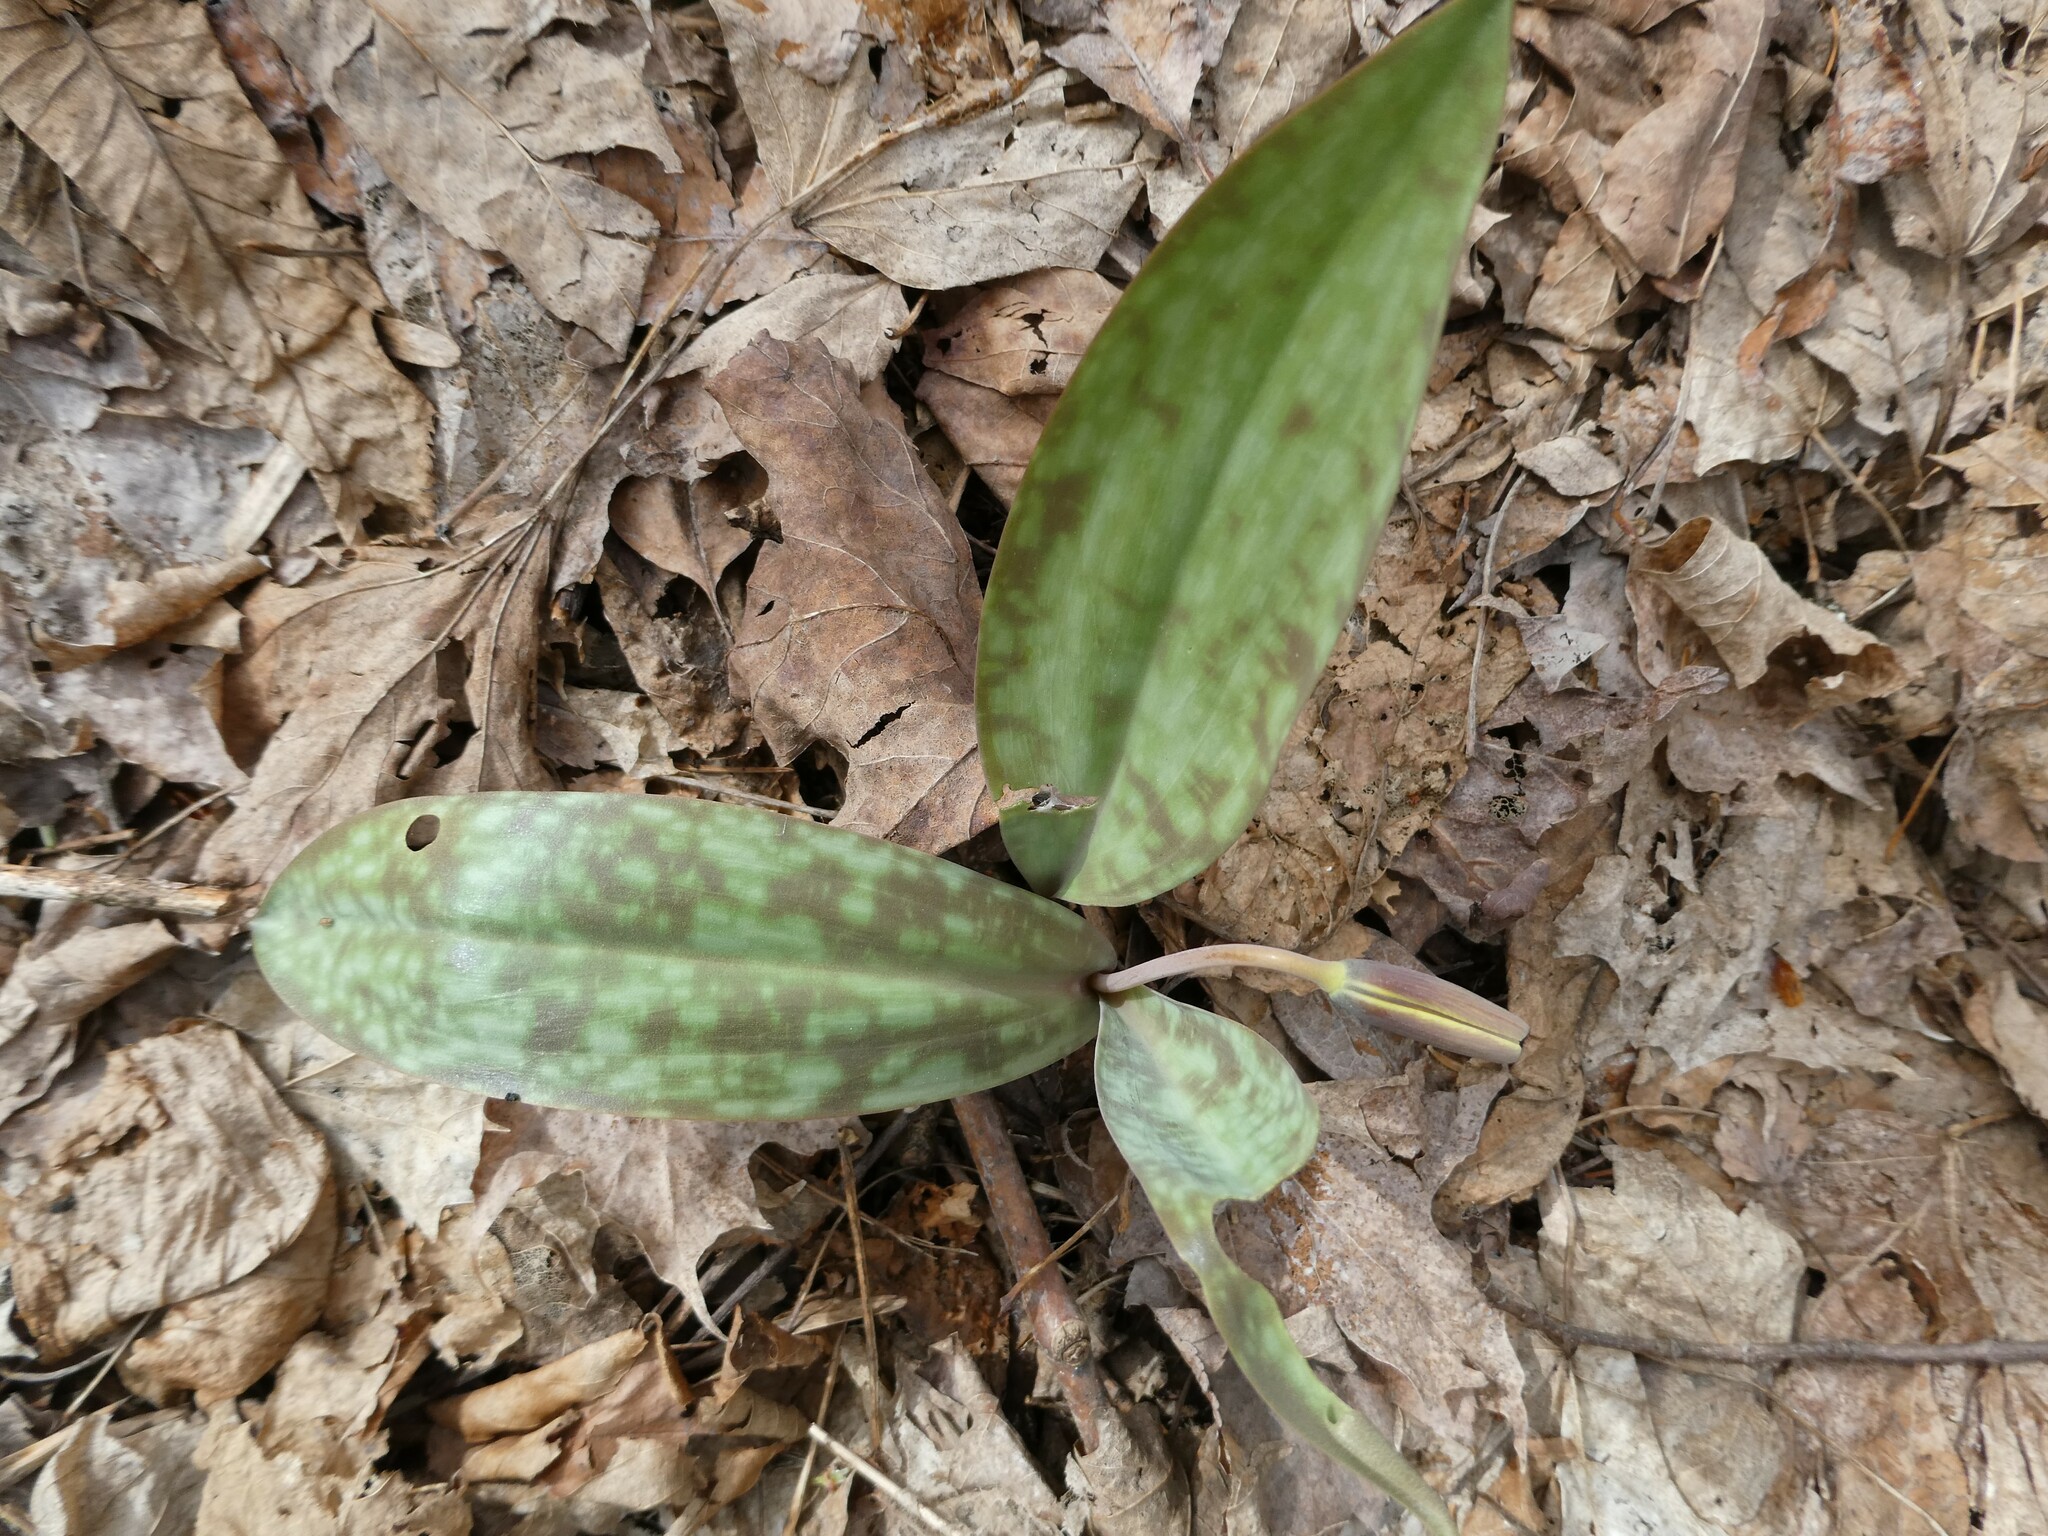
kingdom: Plantae
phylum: Tracheophyta
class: Liliopsida
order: Liliales
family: Liliaceae
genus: Erythronium
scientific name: Erythronium americanum
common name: Yellow adder's-tongue
